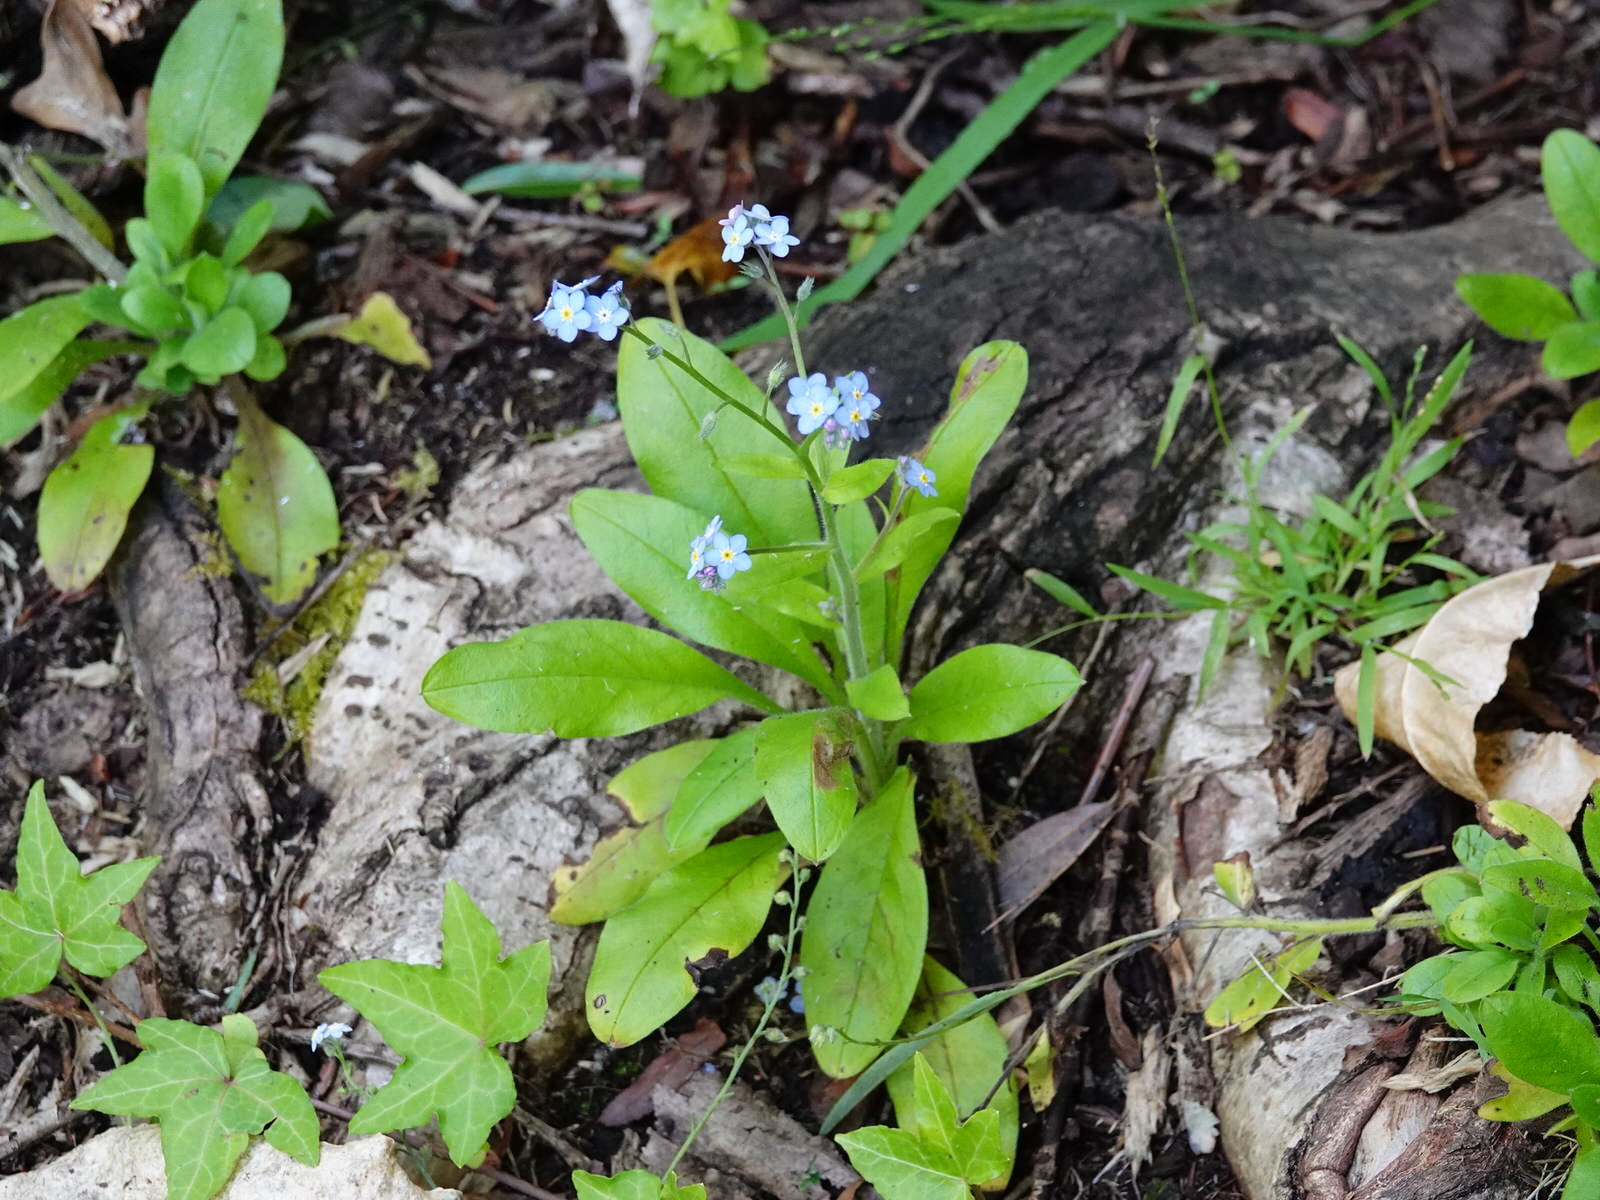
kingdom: Plantae
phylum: Tracheophyta
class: Magnoliopsida
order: Boraginales
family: Boraginaceae
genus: Myosotis
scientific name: Myosotis sylvatica
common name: Wood forget-me-not
